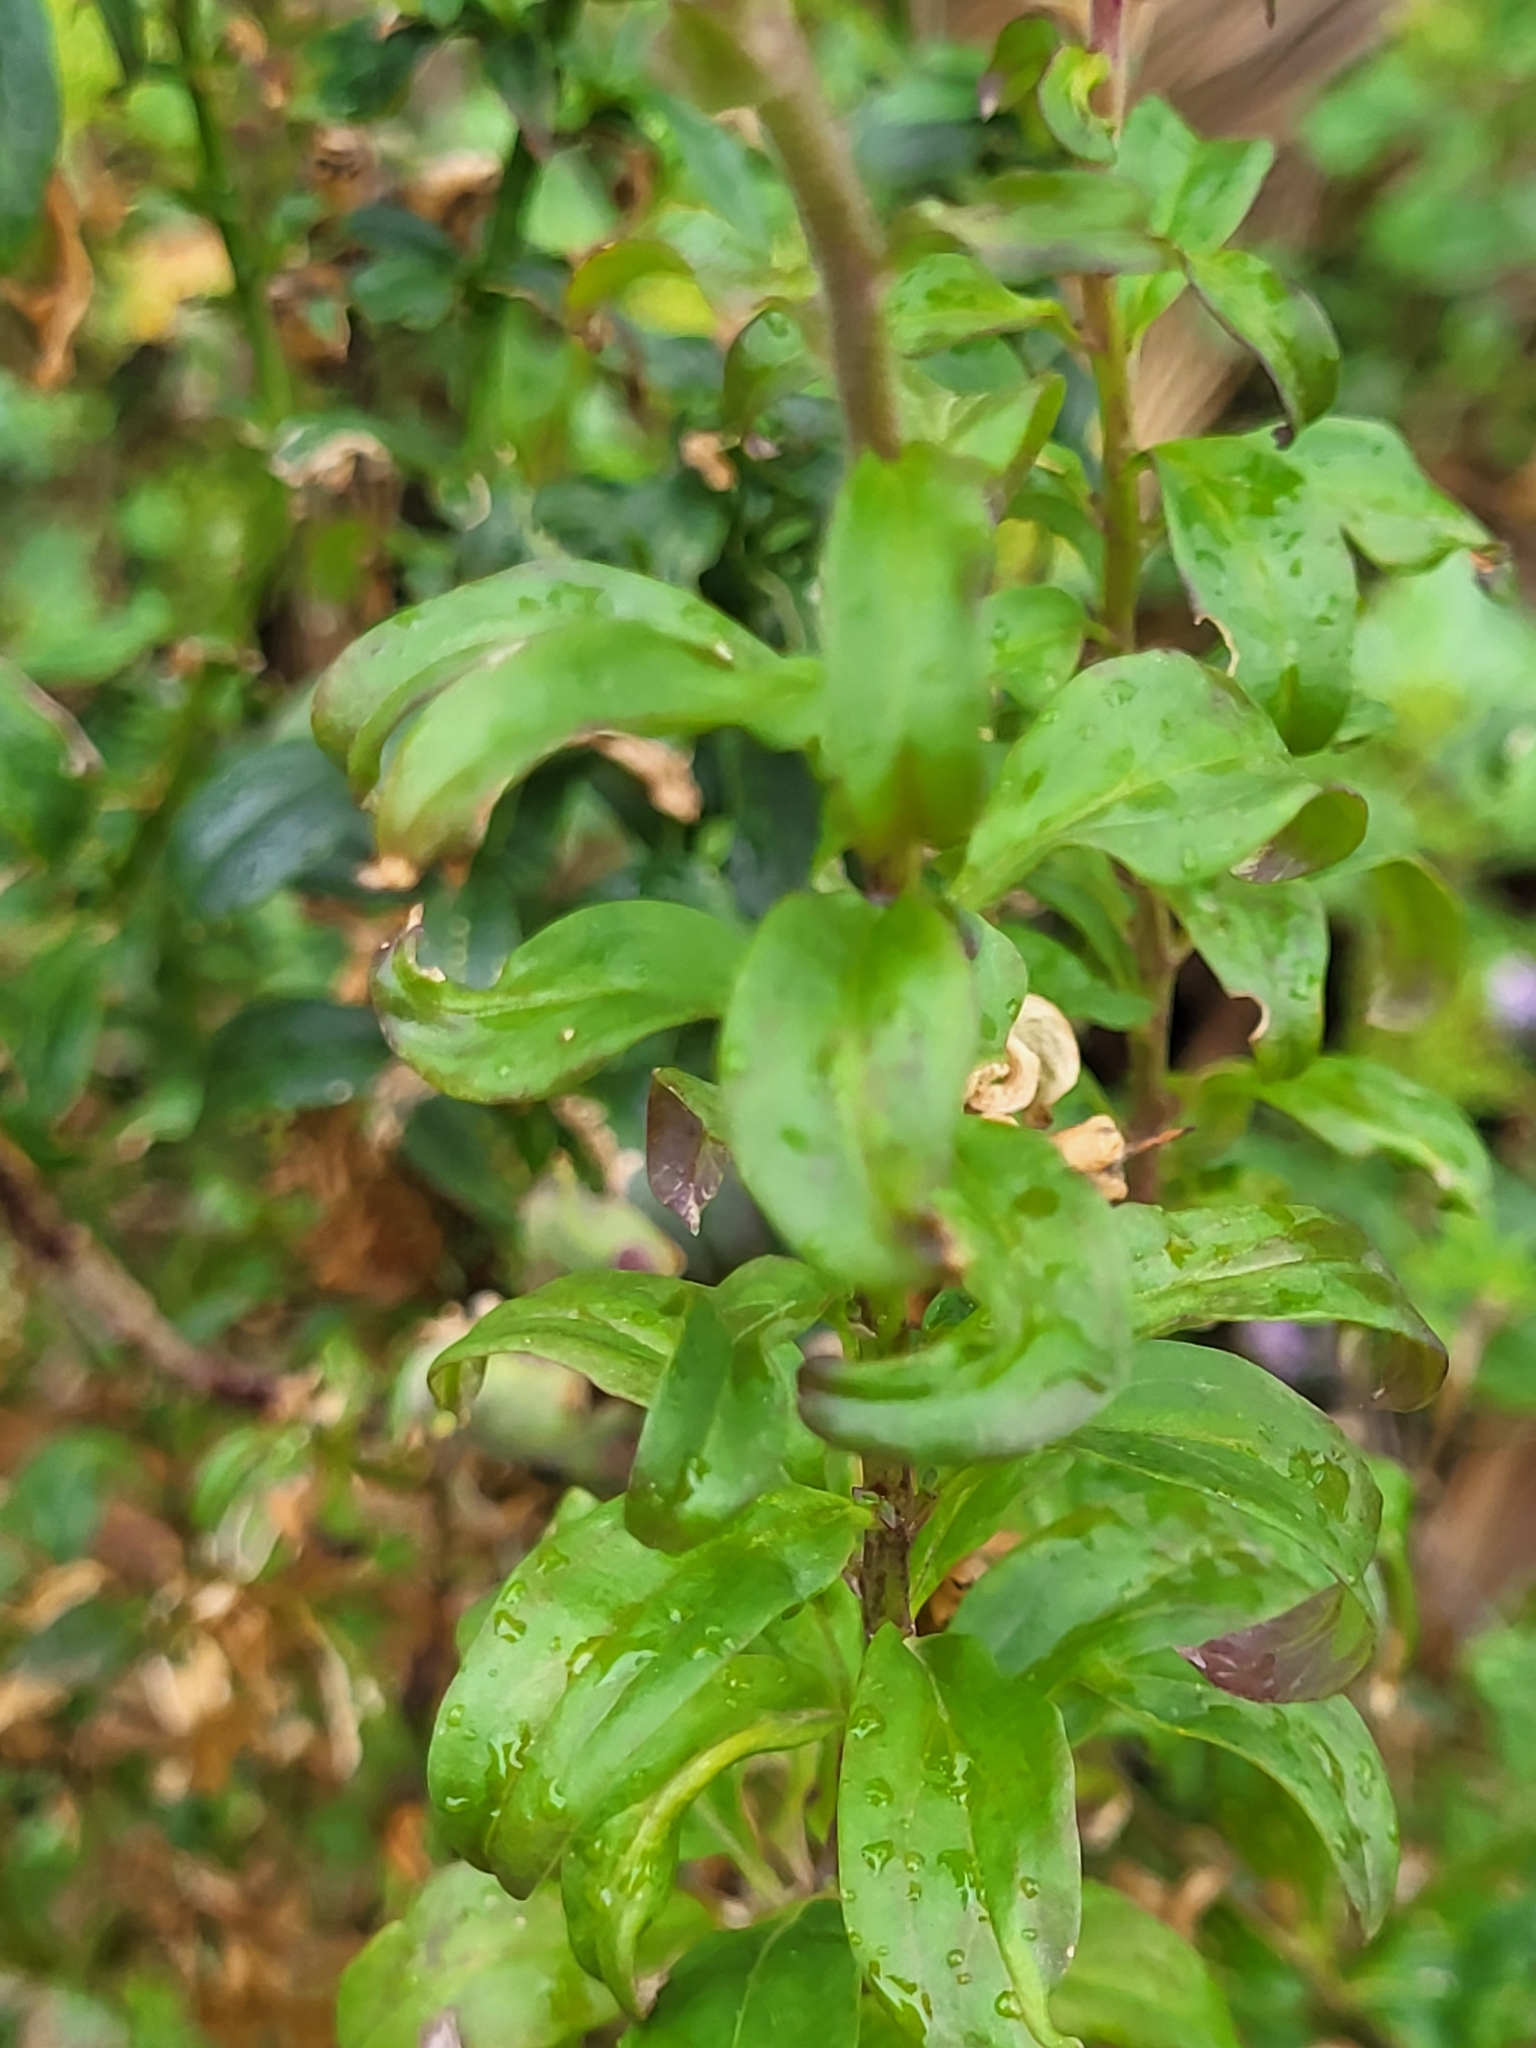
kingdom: Plantae
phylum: Tracheophyta
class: Magnoliopsida
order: Lamiales
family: Plantaginaceae
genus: Antirrhinum
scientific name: Antirrhinum majus
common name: Snapdragon
